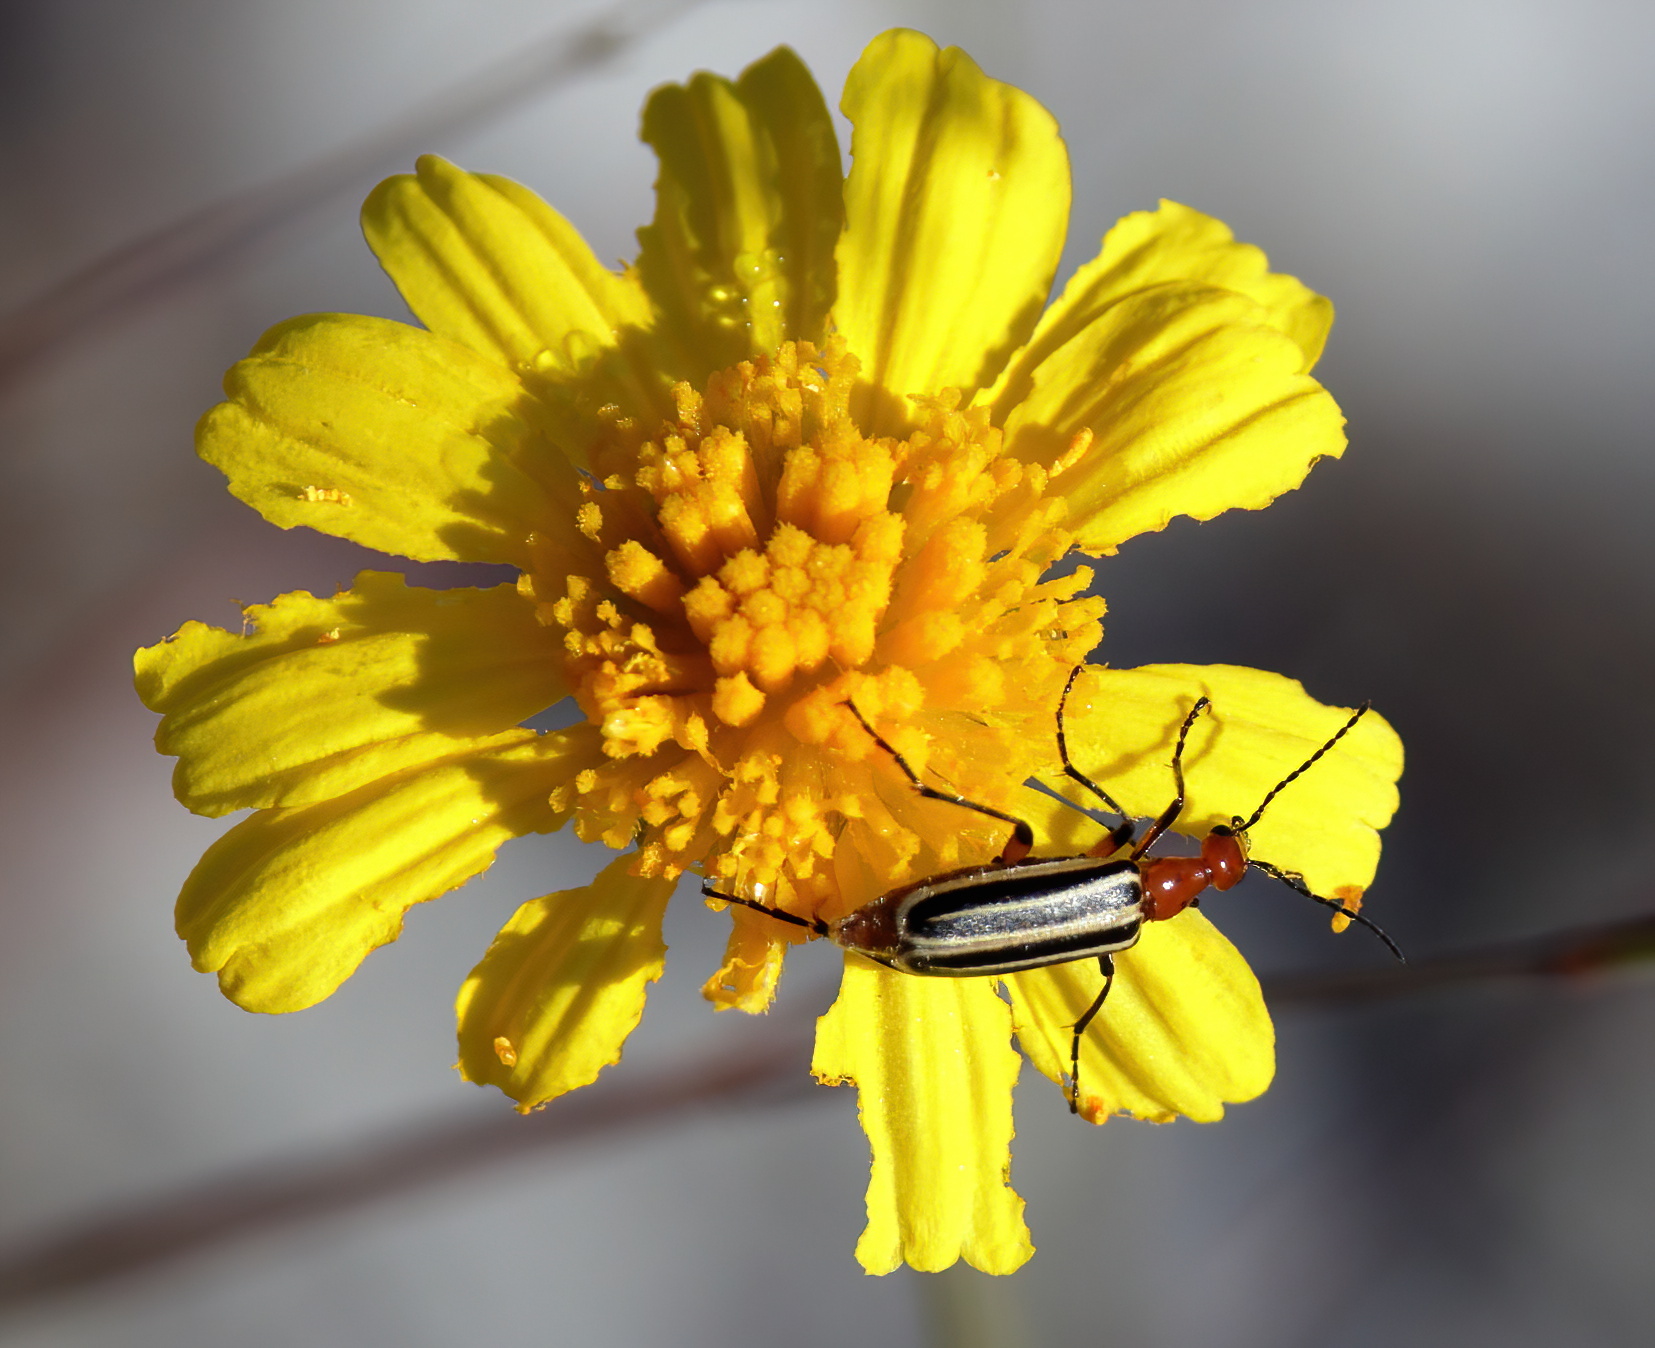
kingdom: Animalia
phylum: Arthropoda
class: Insecta
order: Coleoptera
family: Meloidae
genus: Pyrota
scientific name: Pyrota
